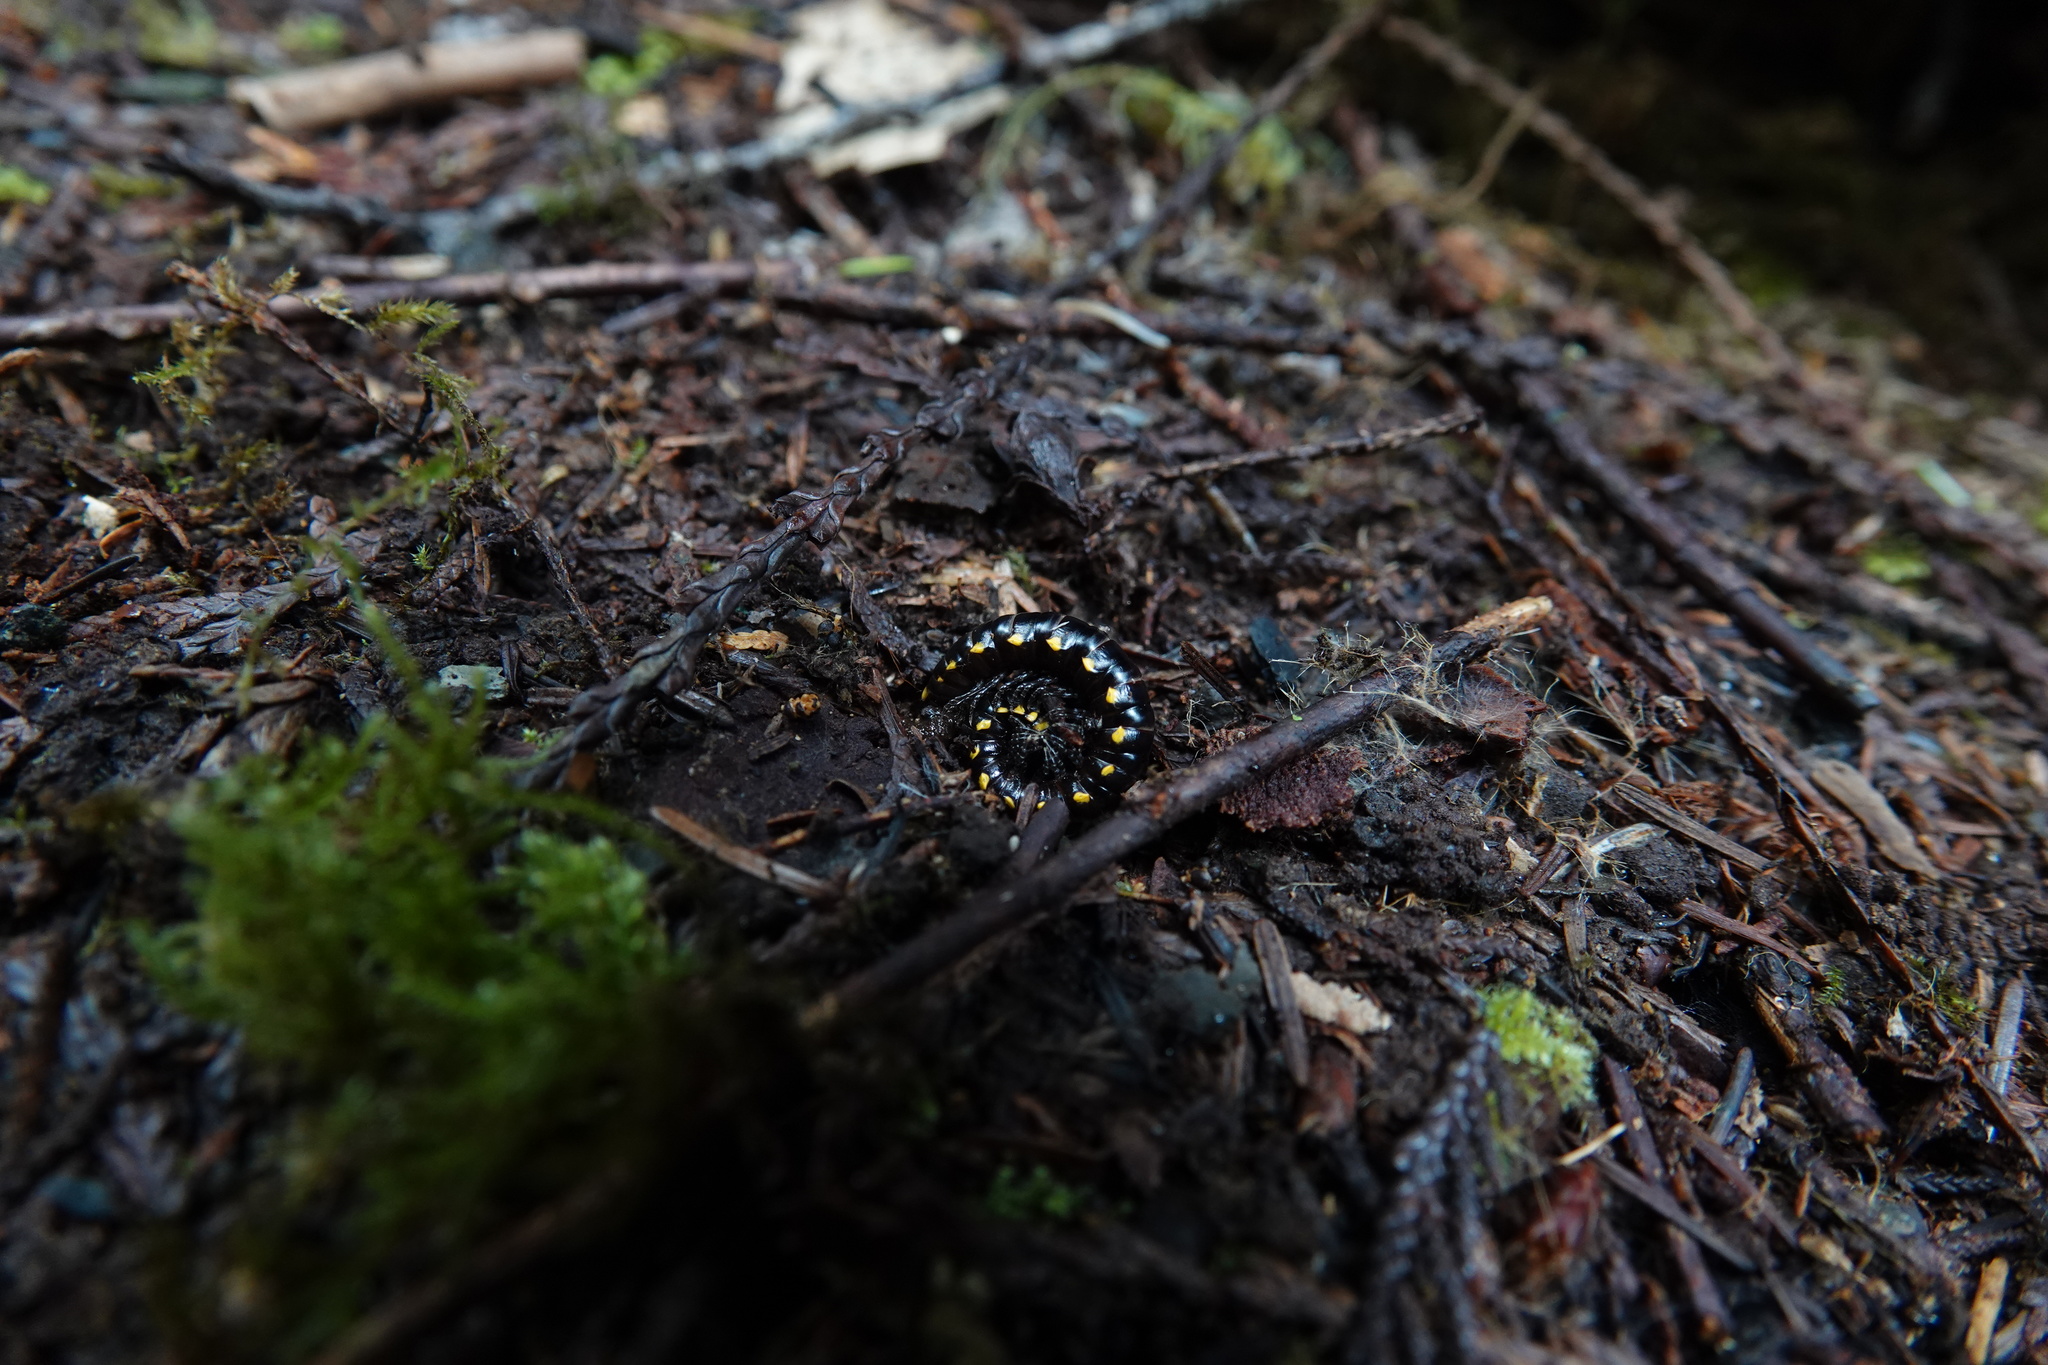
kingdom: Animalia
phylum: Arthropoda
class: Diplopoda
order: Polydesmida
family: Xystodesmidae
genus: Harpaphe
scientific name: Harpaphe haydeniana
